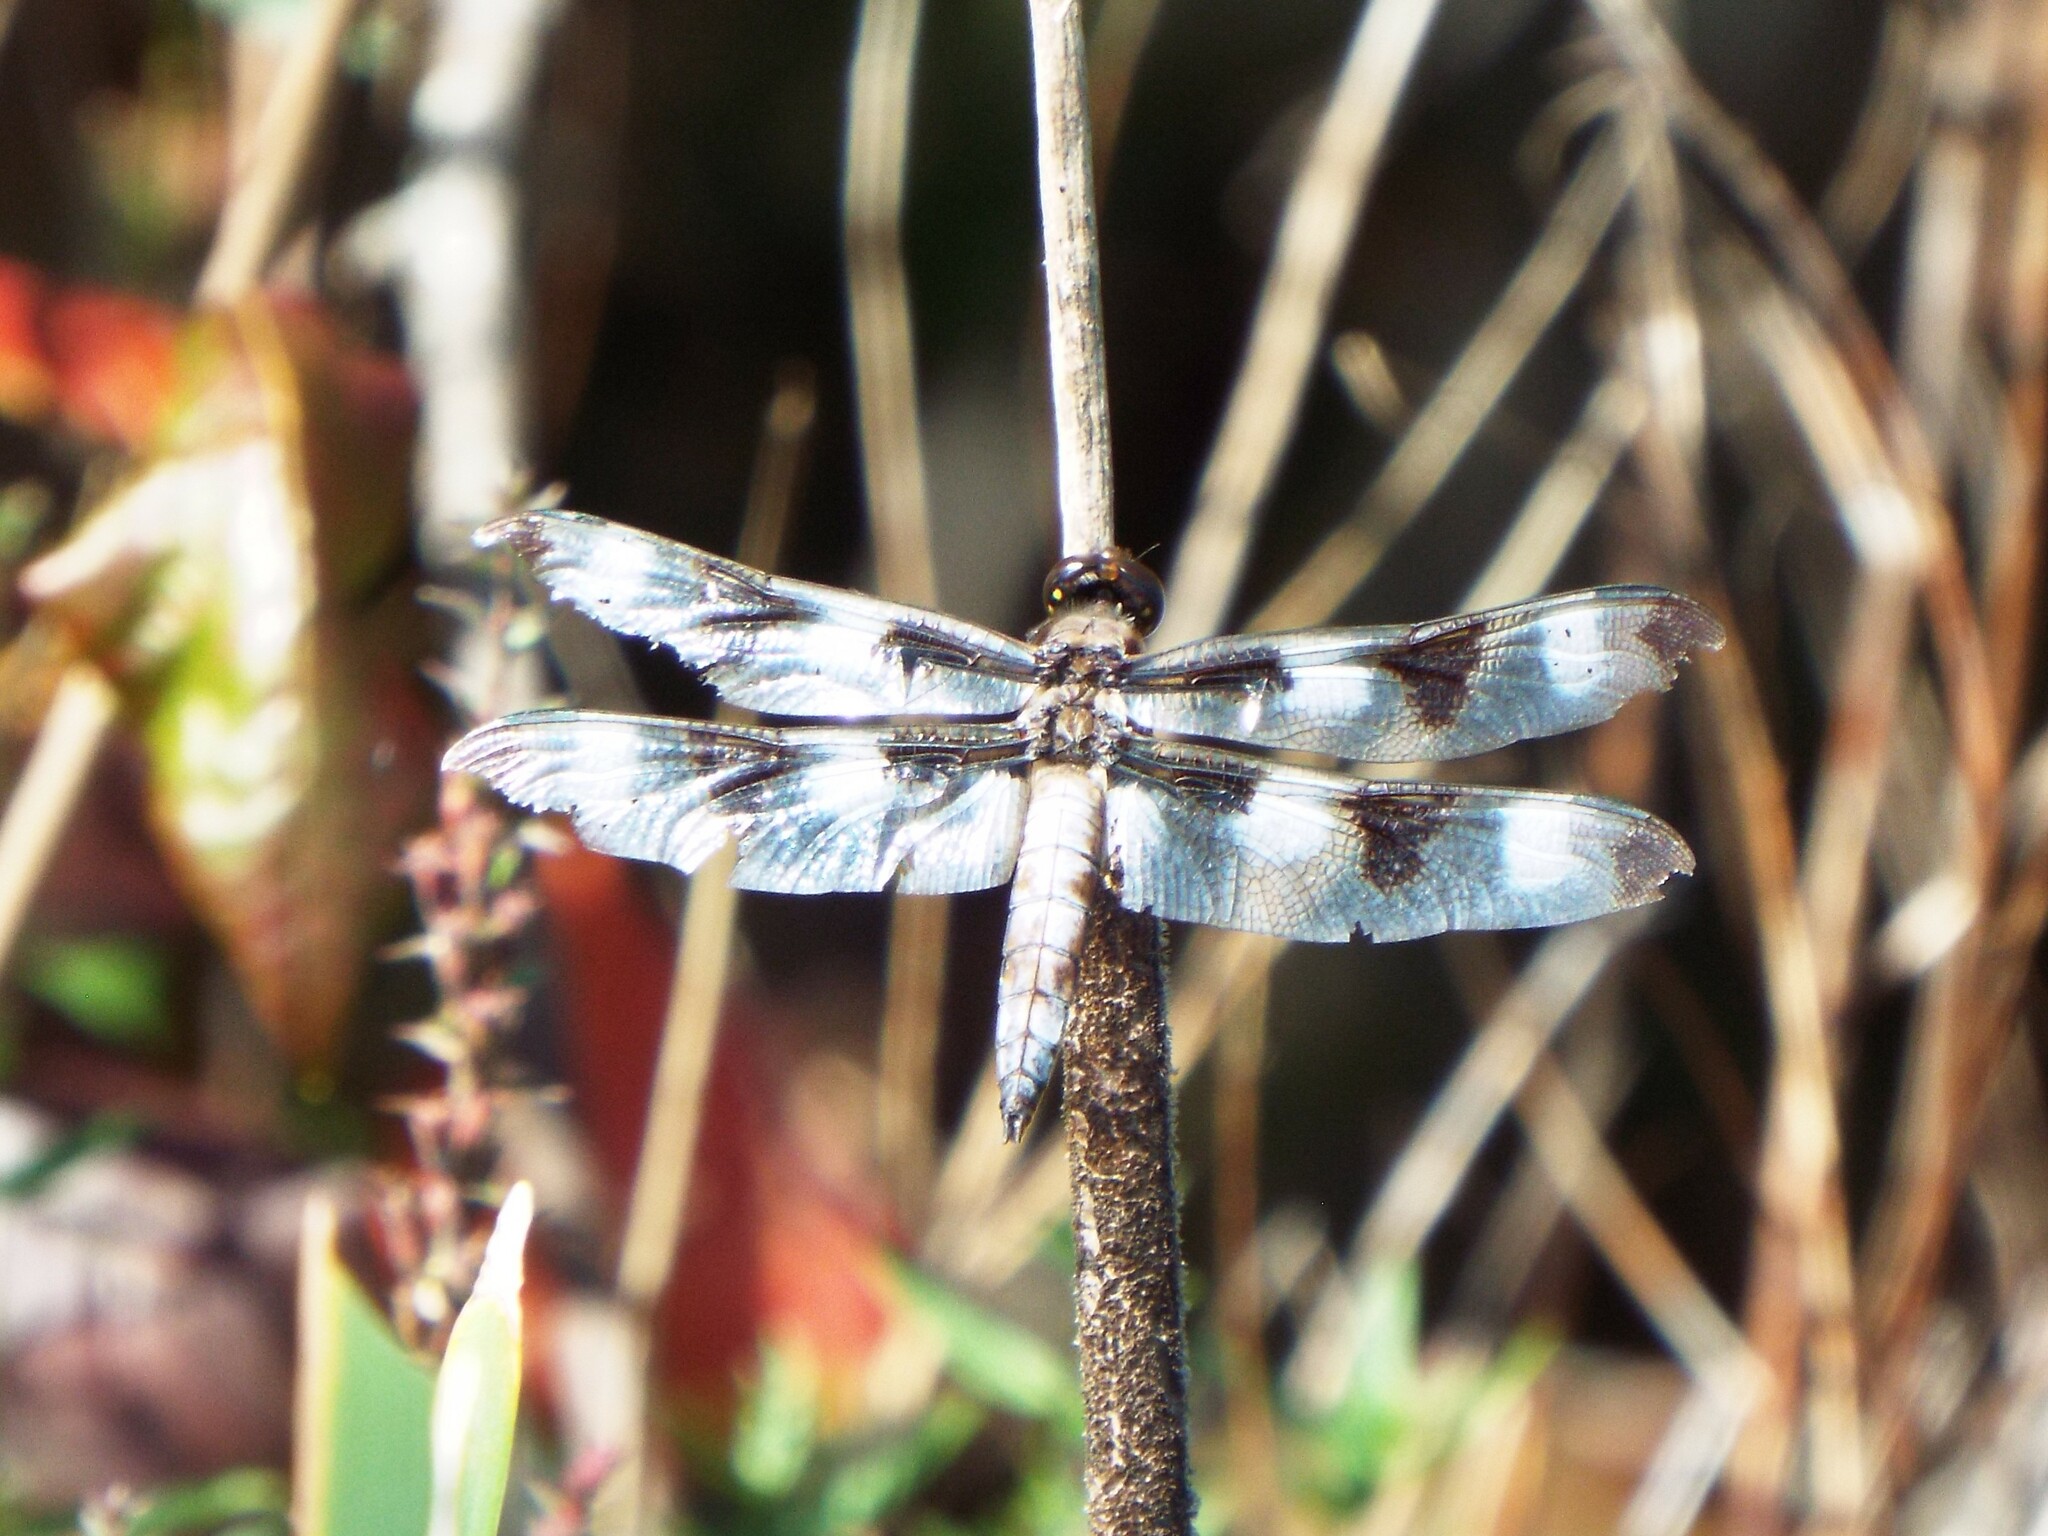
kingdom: Animalia
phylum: Arthropoda
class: Insecta
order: Odonata
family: Libellulidae
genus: Libellula
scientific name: Libellula pulchella
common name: Twelve-spotted skimmer
